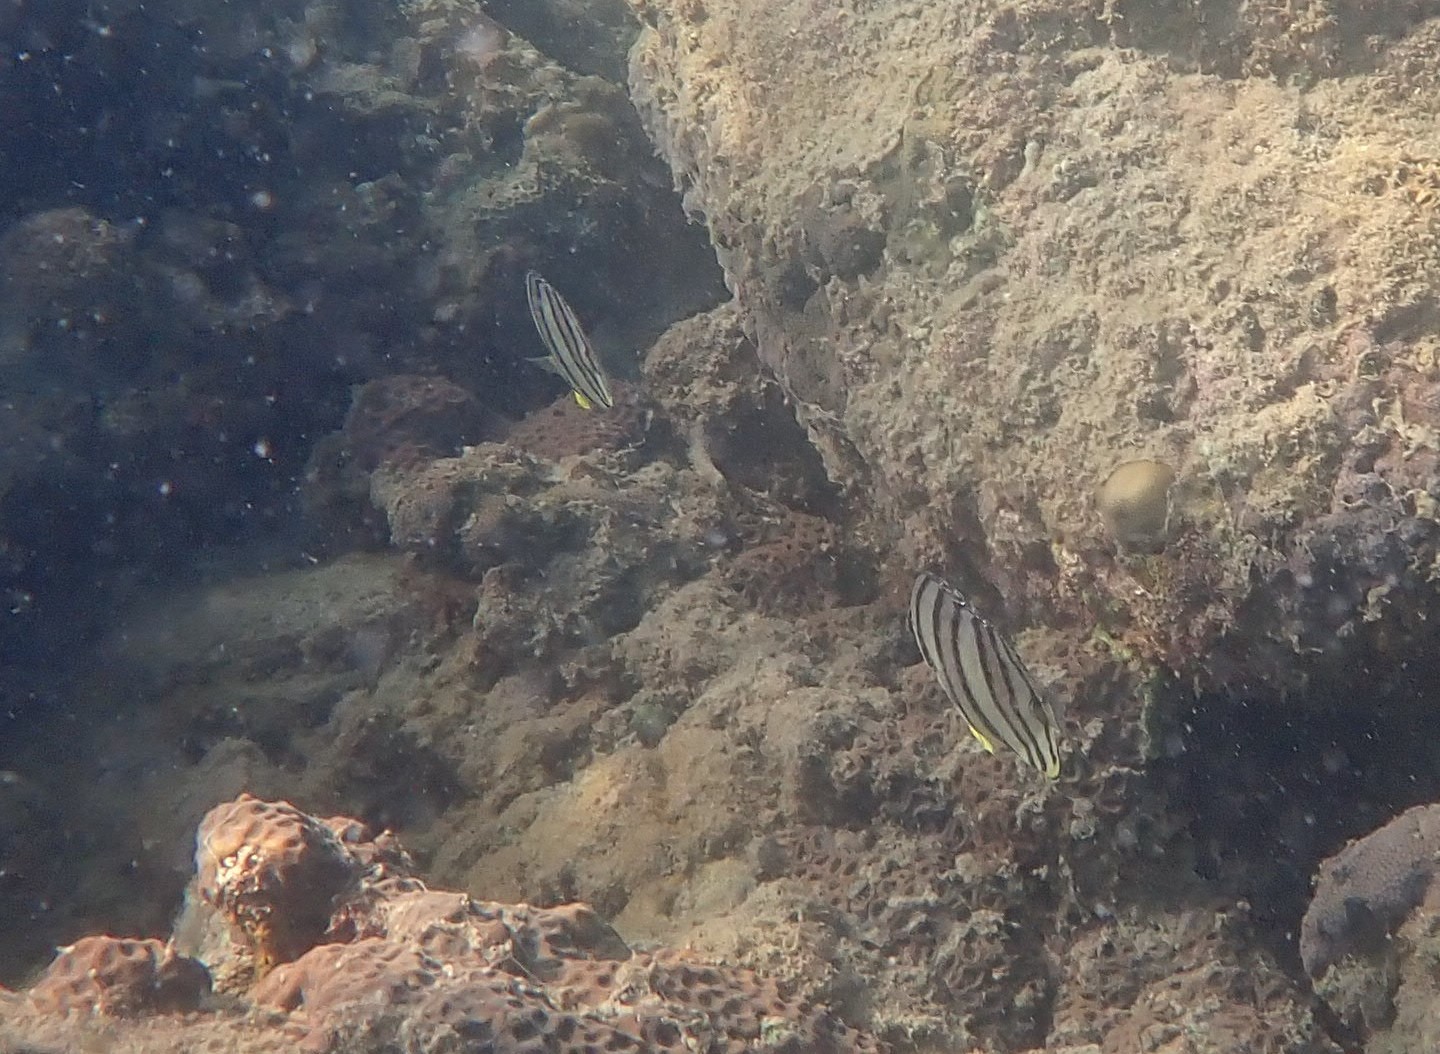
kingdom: Animalia
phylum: Chordata
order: Perciformes
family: Chaetodontidae
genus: Chaetodon
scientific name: Chaetodon octofasciatus
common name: Eightband butterflyfish
